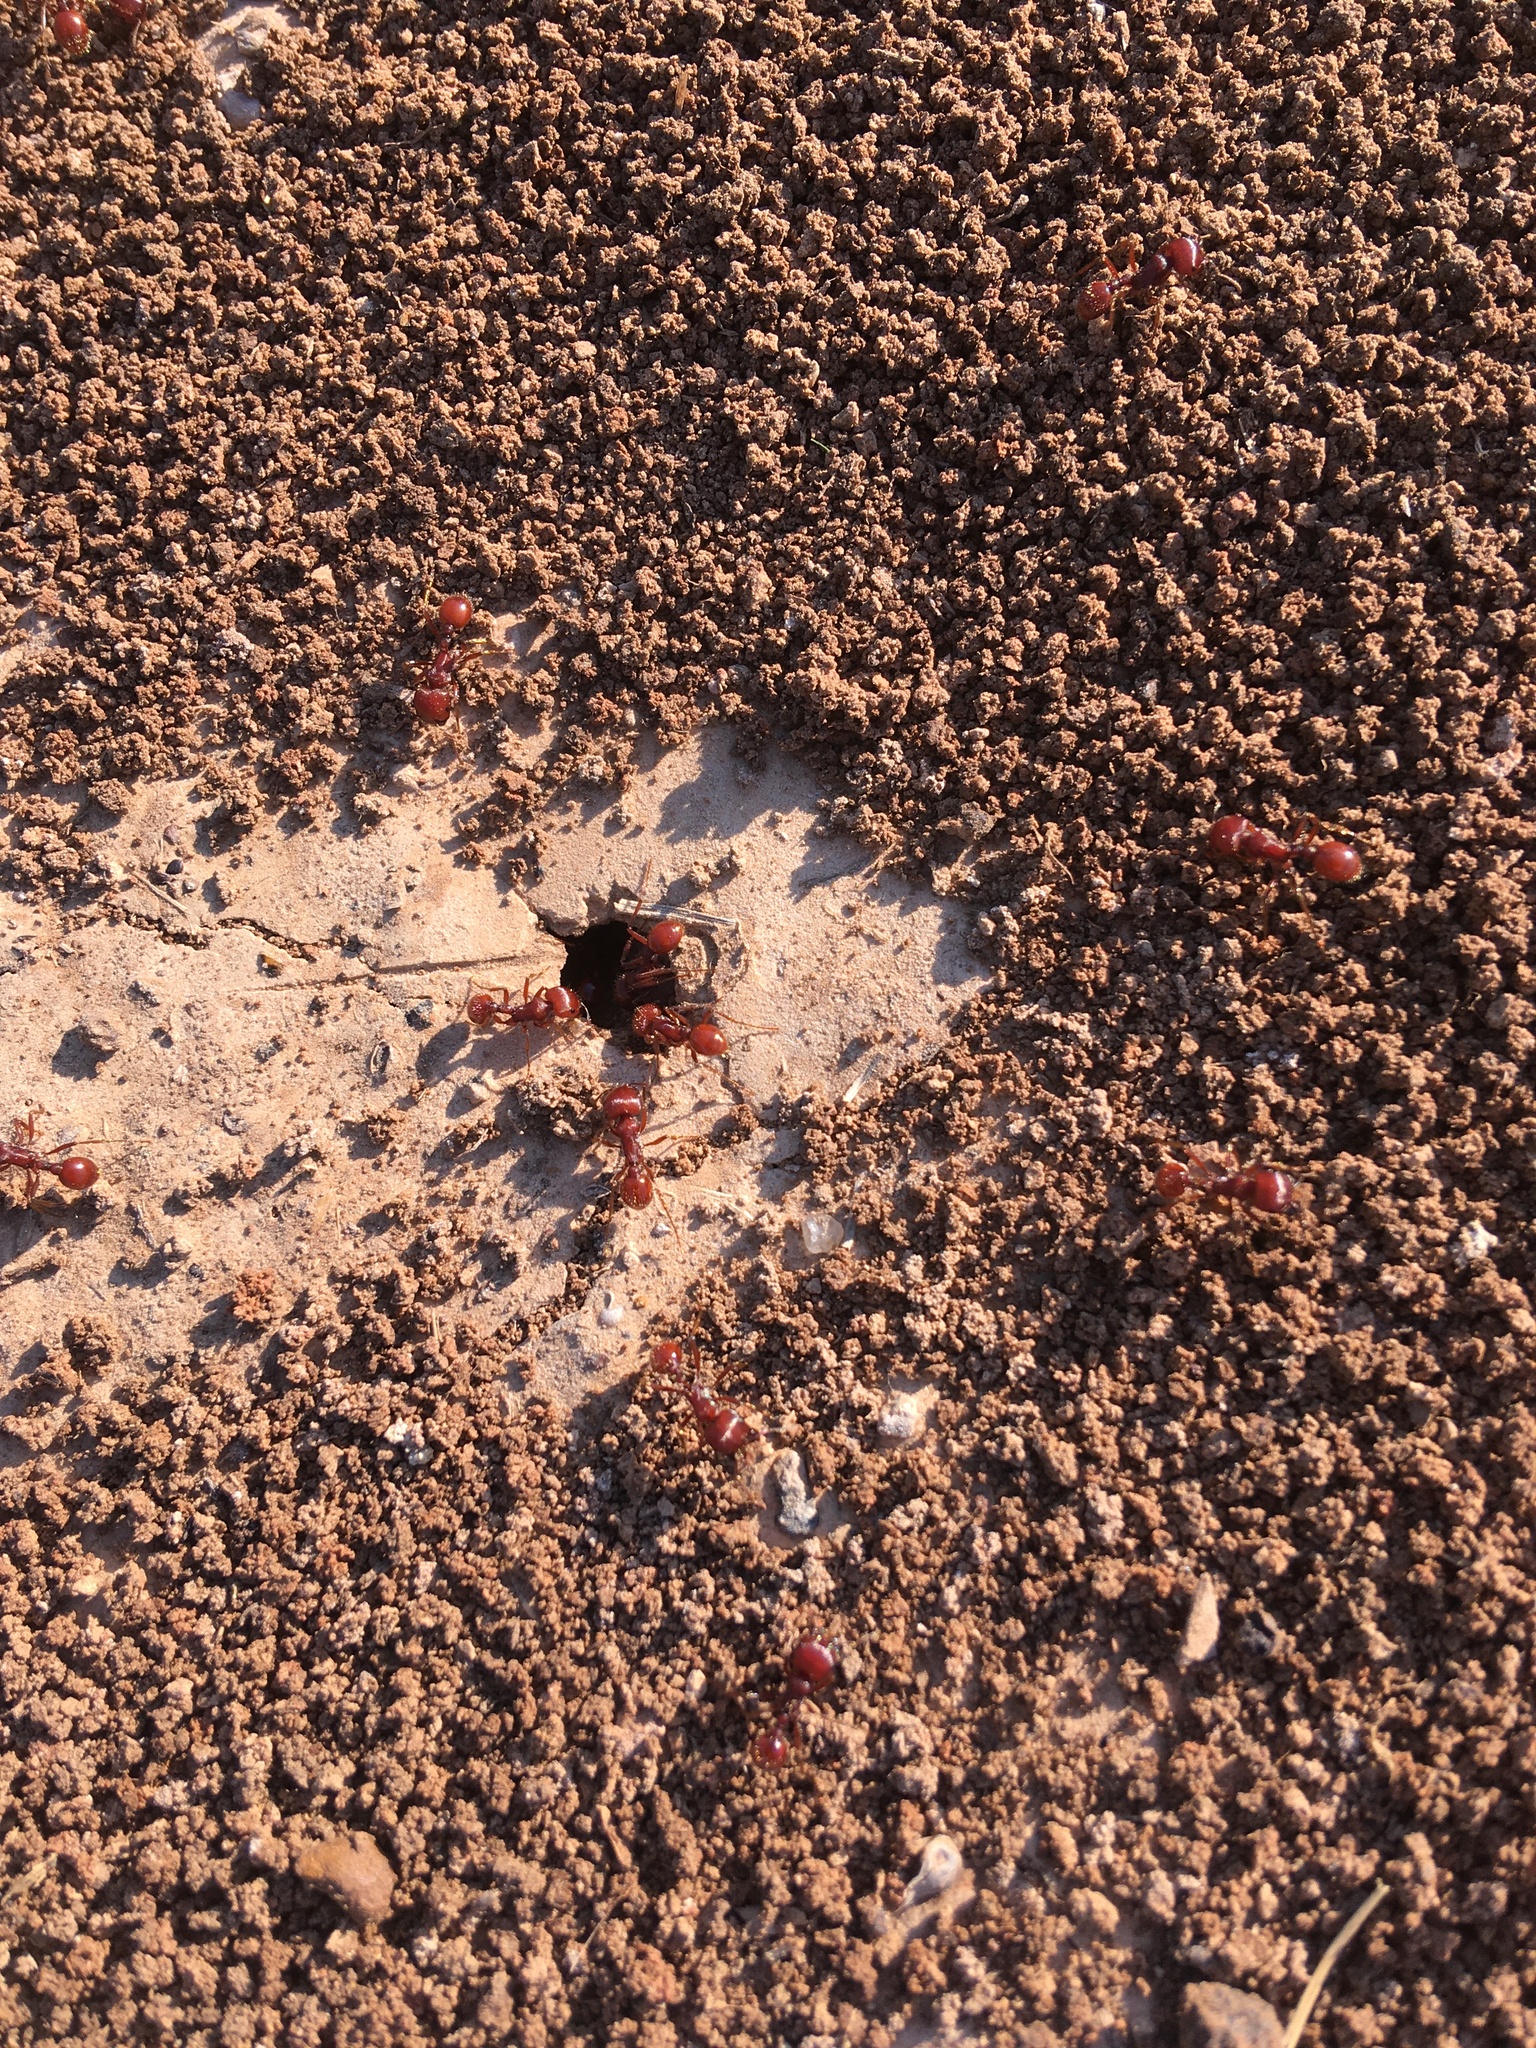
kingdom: Animalia
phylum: Arthropoda
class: Insecta
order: Hymenoptera
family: Formicidae
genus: Pogonomyrmex
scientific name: Pogonomyrmex barbatus
